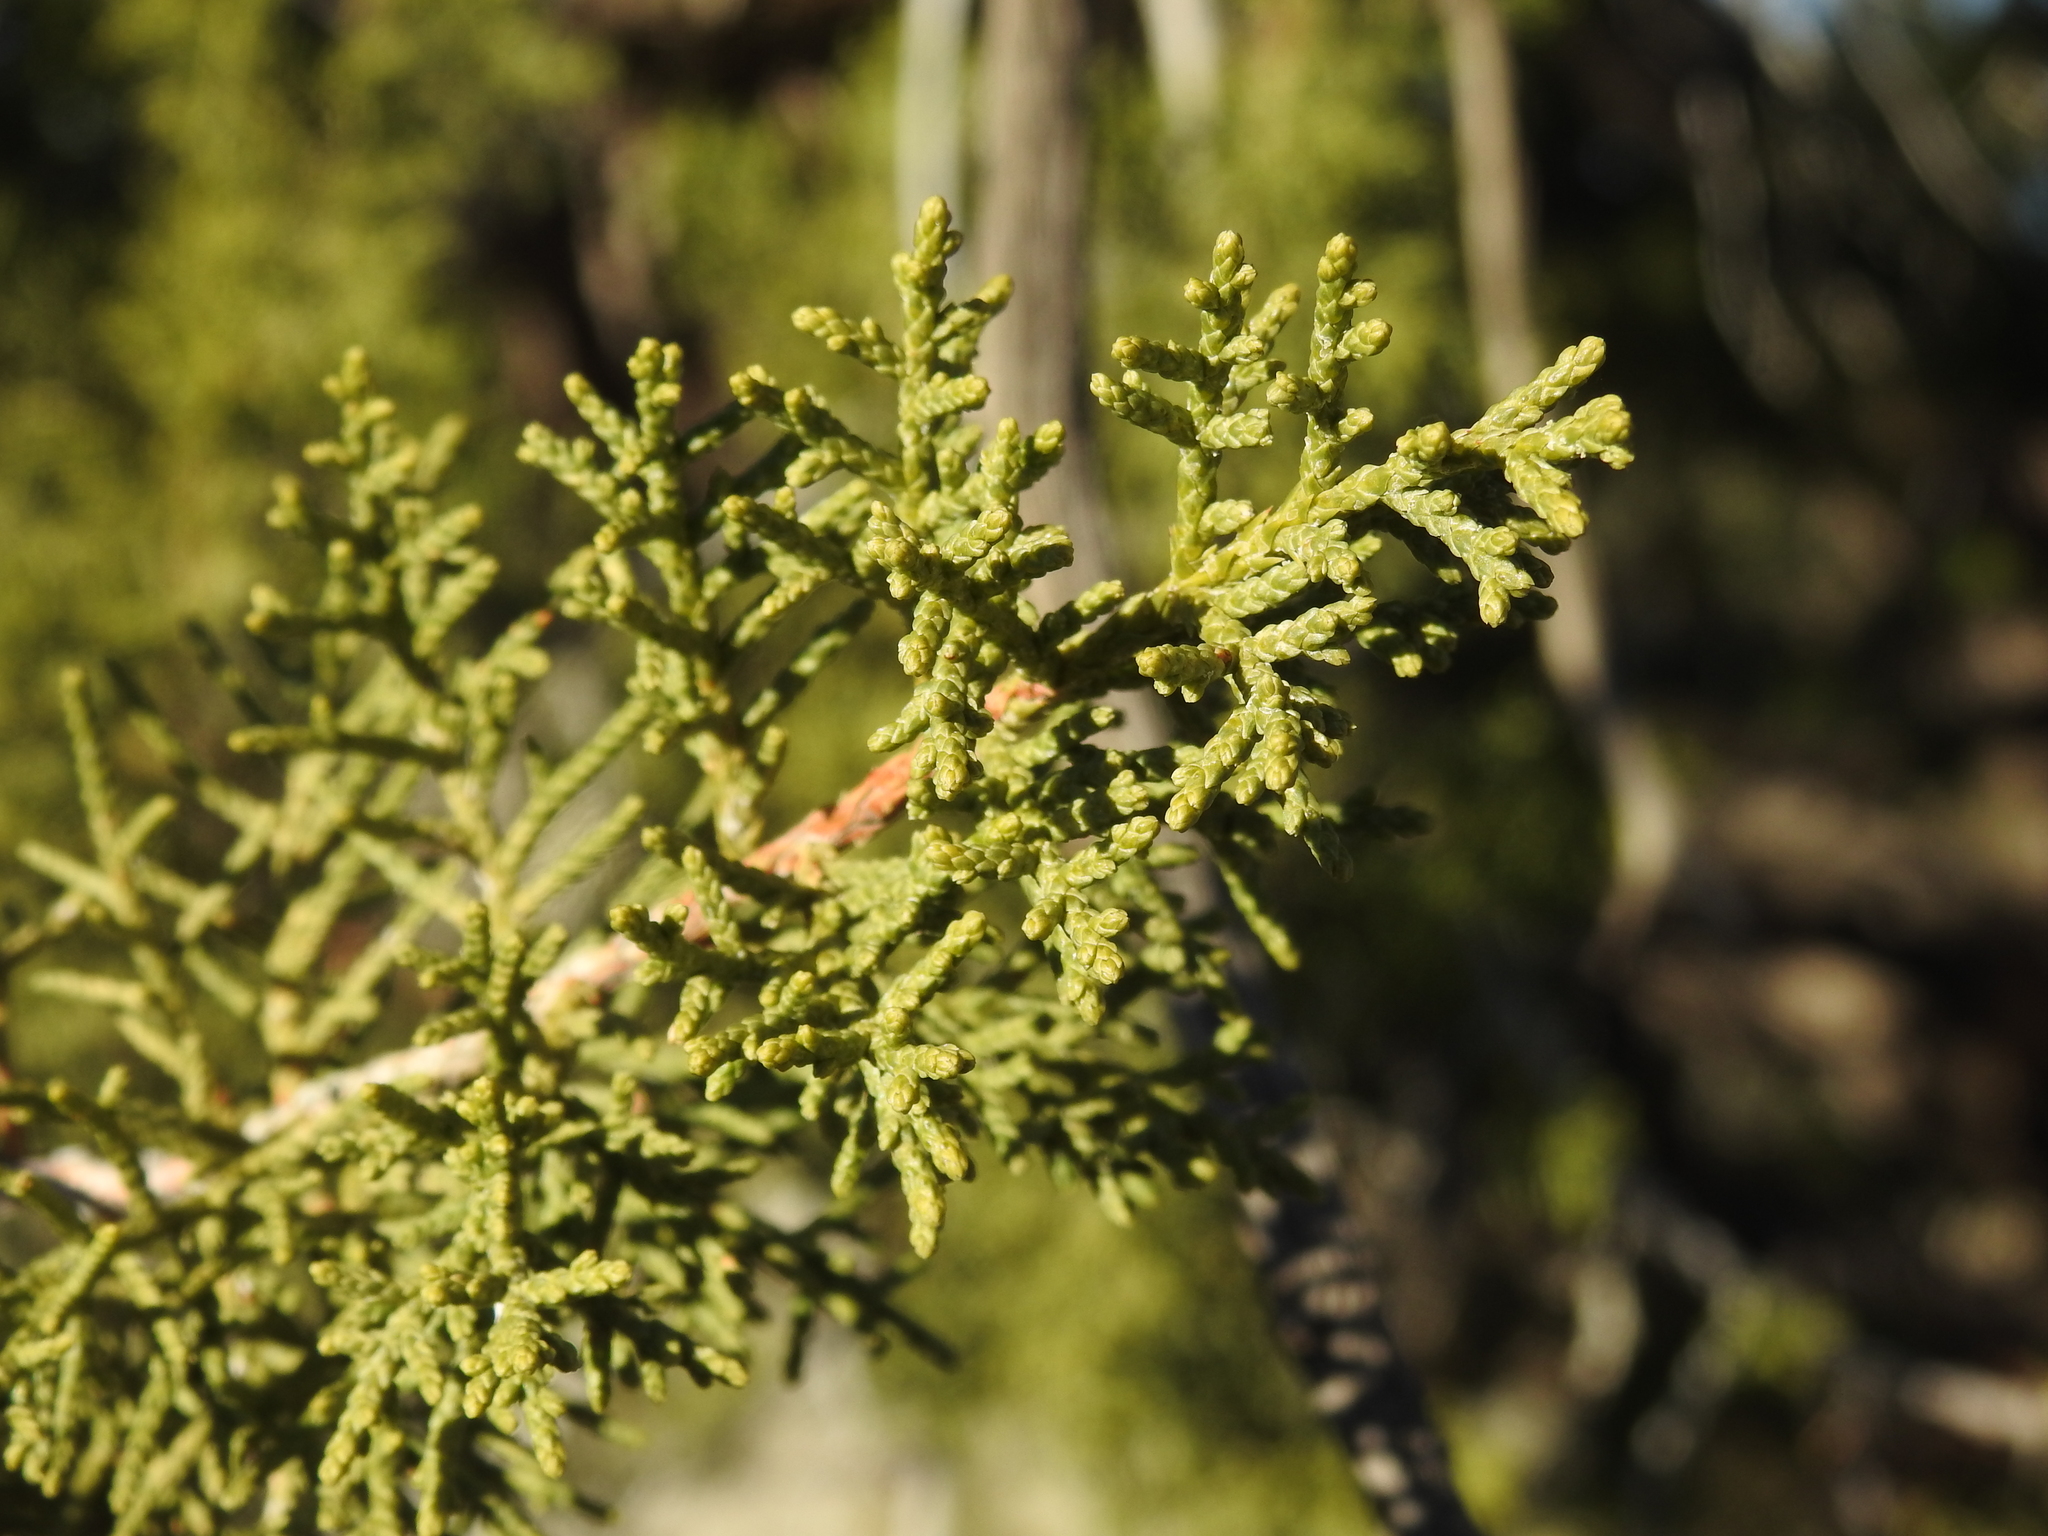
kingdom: Plantae
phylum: Tracheophyta
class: Pinopsida
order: Pinales
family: Cupressaceae
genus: Juniperus
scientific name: Juniperus arizonica
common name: Arizona juniper
